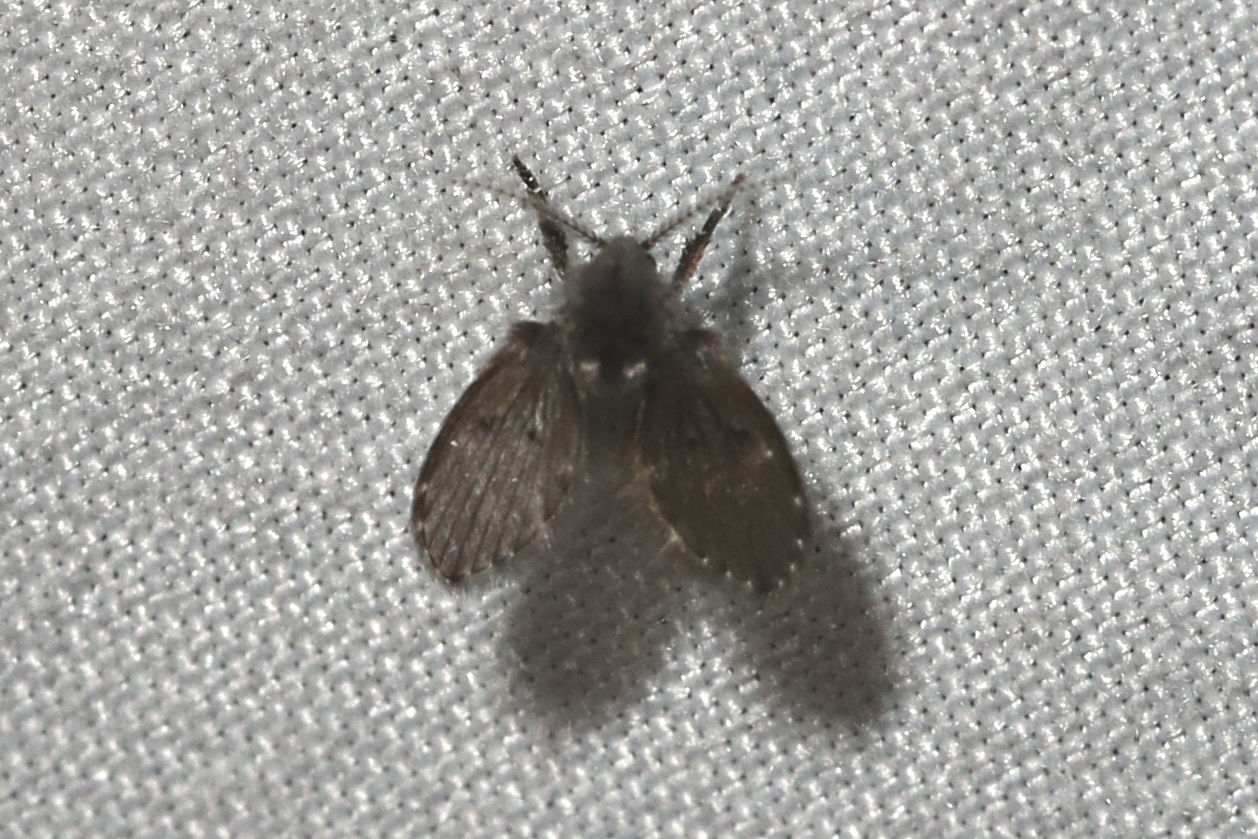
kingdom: Animalia
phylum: Arthropoda
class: Insecta
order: Diptera
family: Psychodidae
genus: Clogmia
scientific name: Clogmia albipunctatus
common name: White-spotted moth fly
